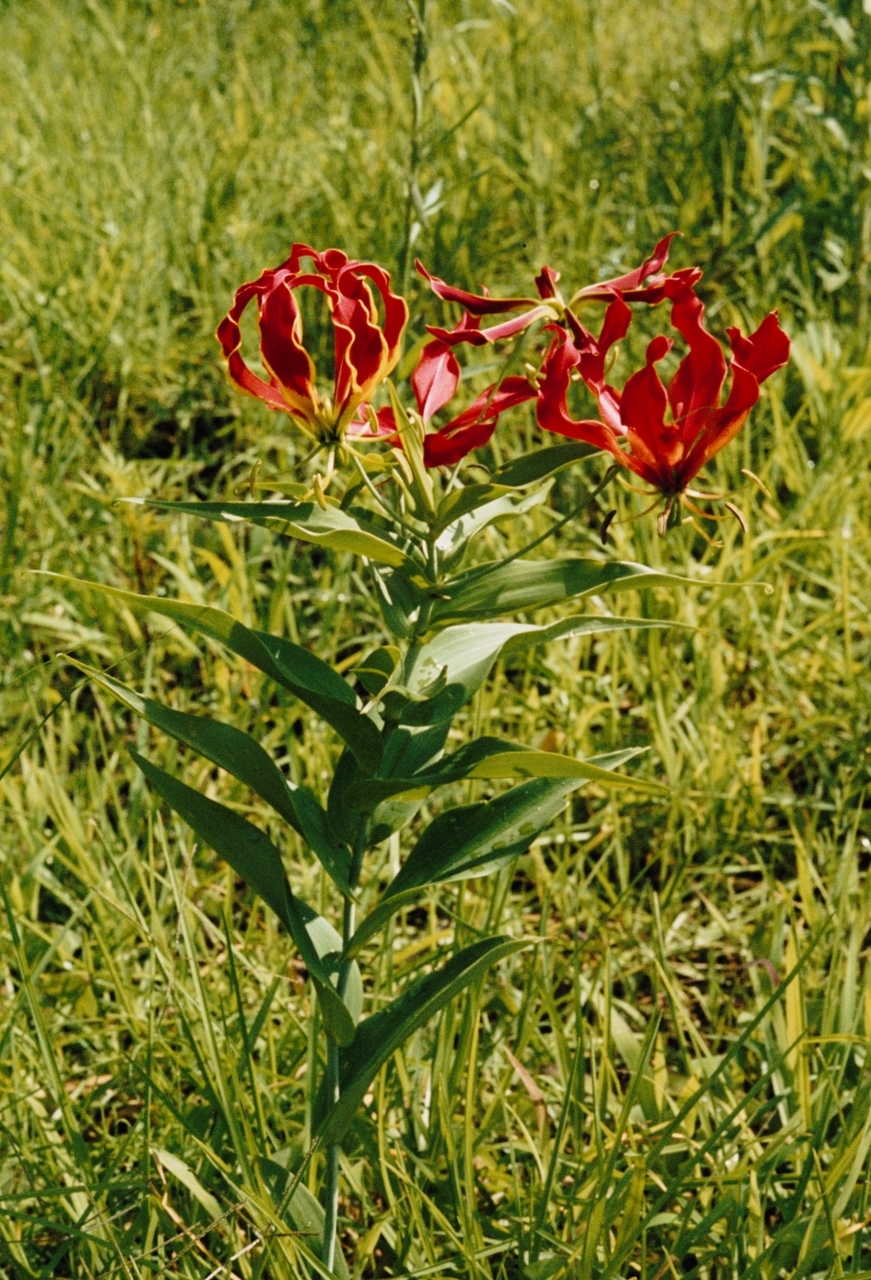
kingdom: Plantae
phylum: Tracheophyta
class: Liliopsida
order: Liliales
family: Colchicaceae
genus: Gloriosa
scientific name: Gloriosa superba
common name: Flame lily
